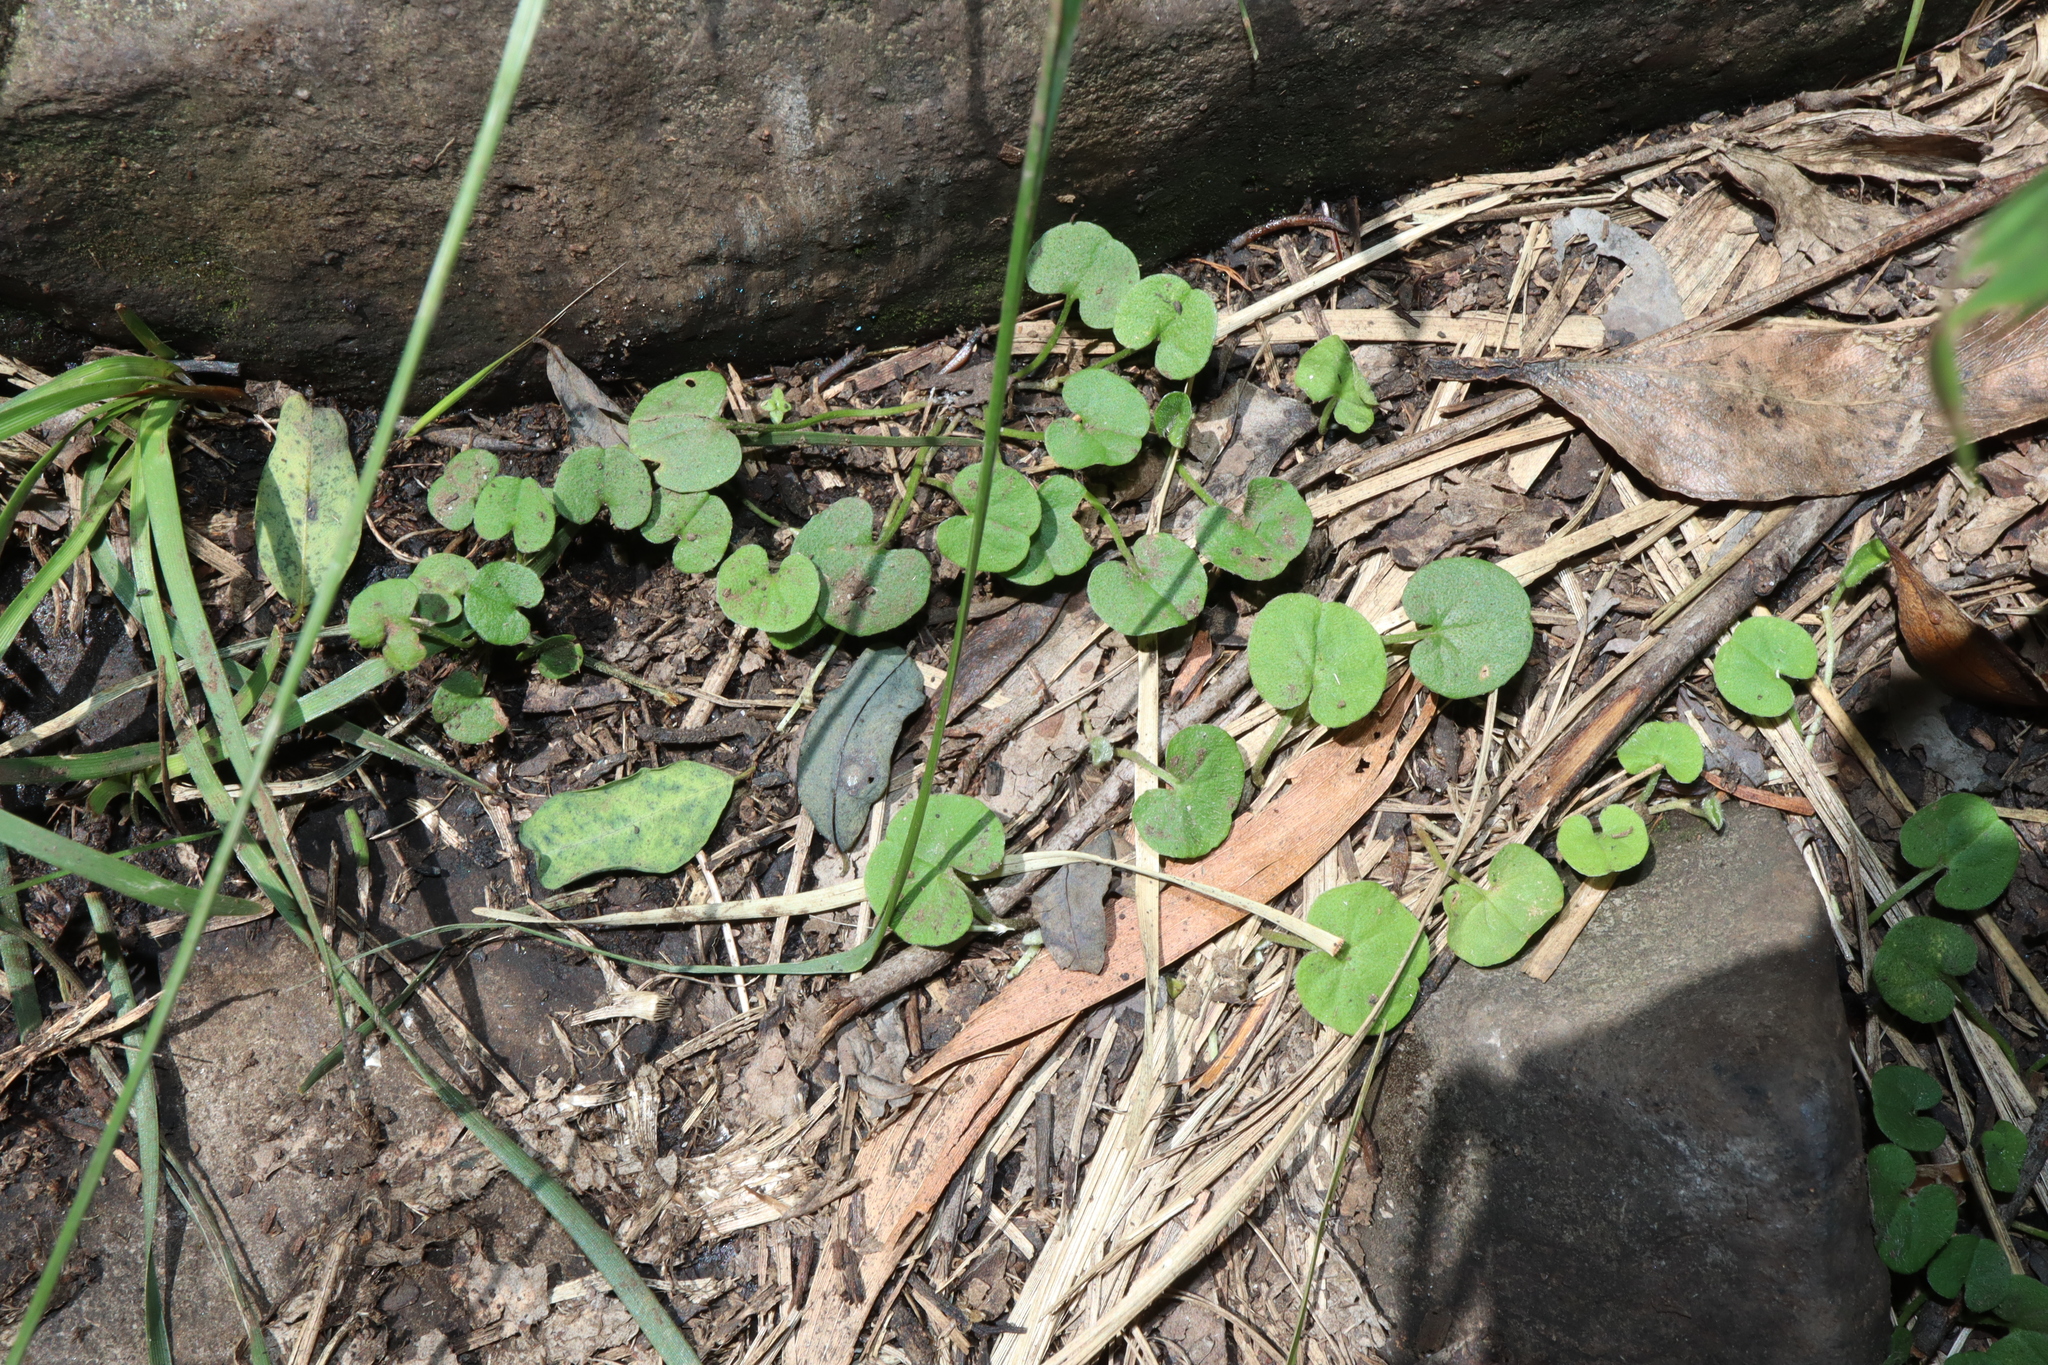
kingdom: Plantae
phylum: Tracheophyta
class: Magnoliopsida
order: Solanales
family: Convolvulaceae
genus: Dichondra
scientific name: Dichondra repens
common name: Kidneyweed
